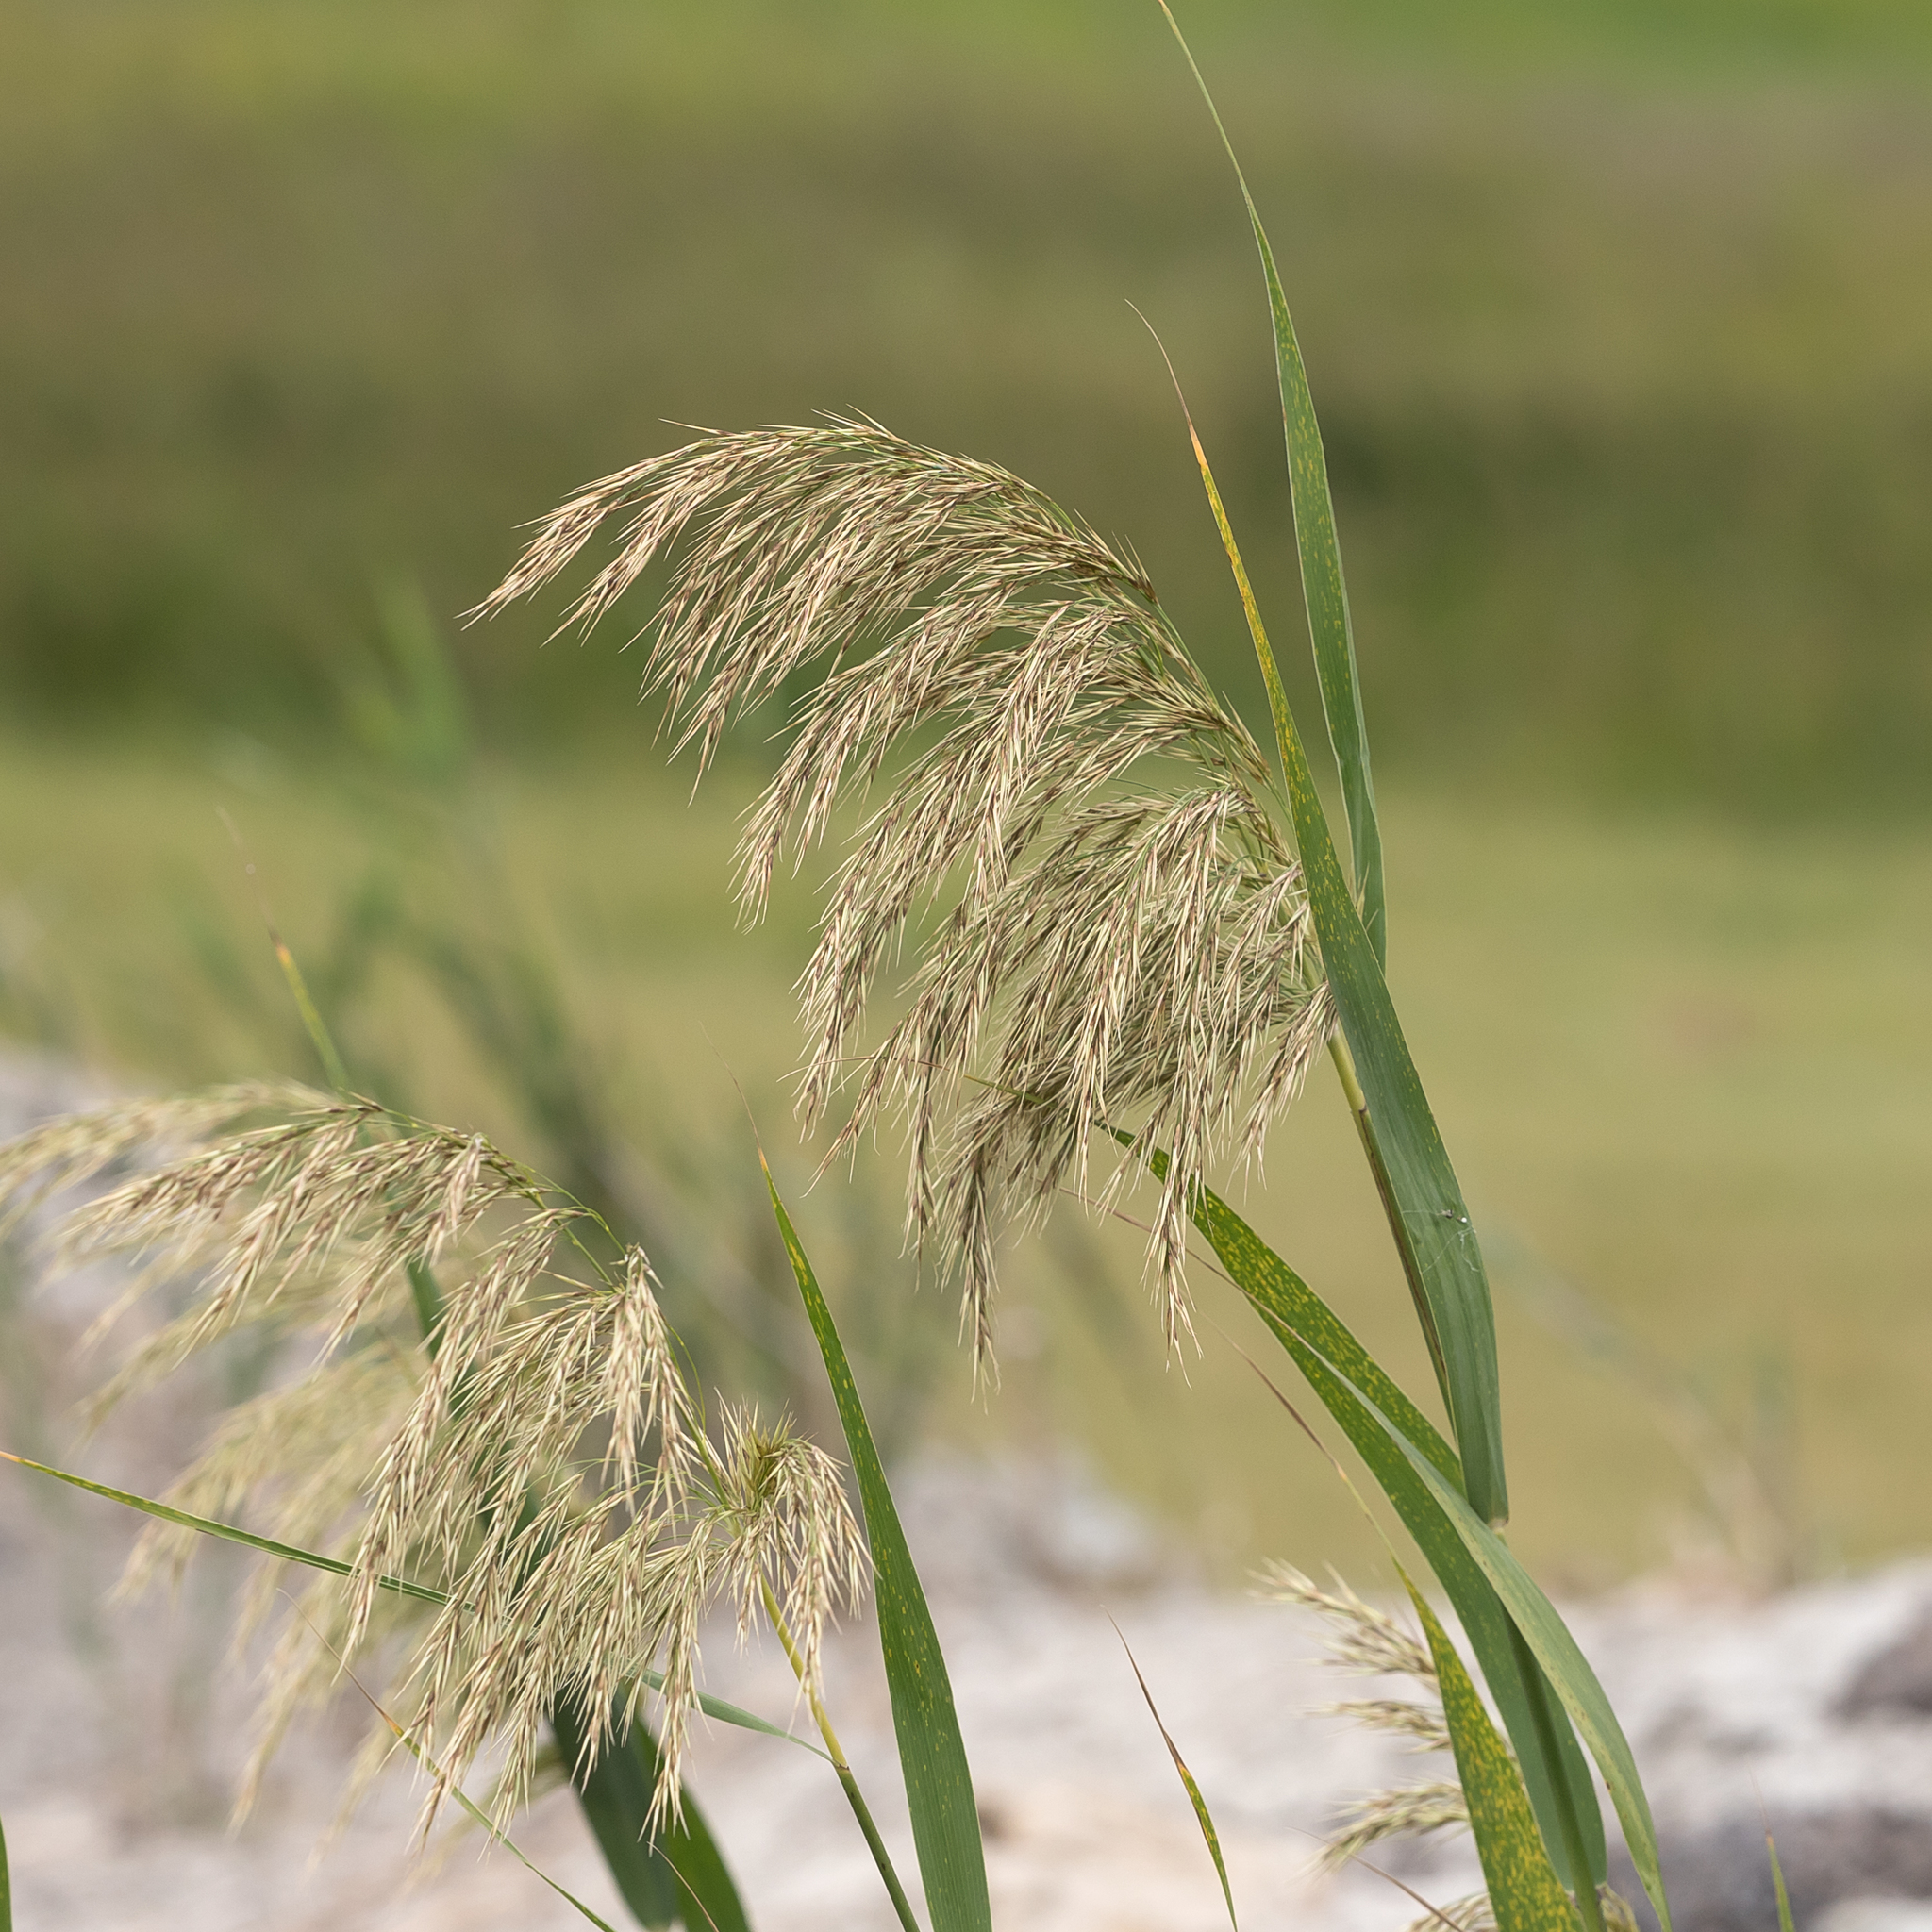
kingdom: Plantae
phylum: Tracheophyta
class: Liliopsida
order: Poales
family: Poaceae
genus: Phragmites
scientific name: Phragmites australis
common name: Common reed
